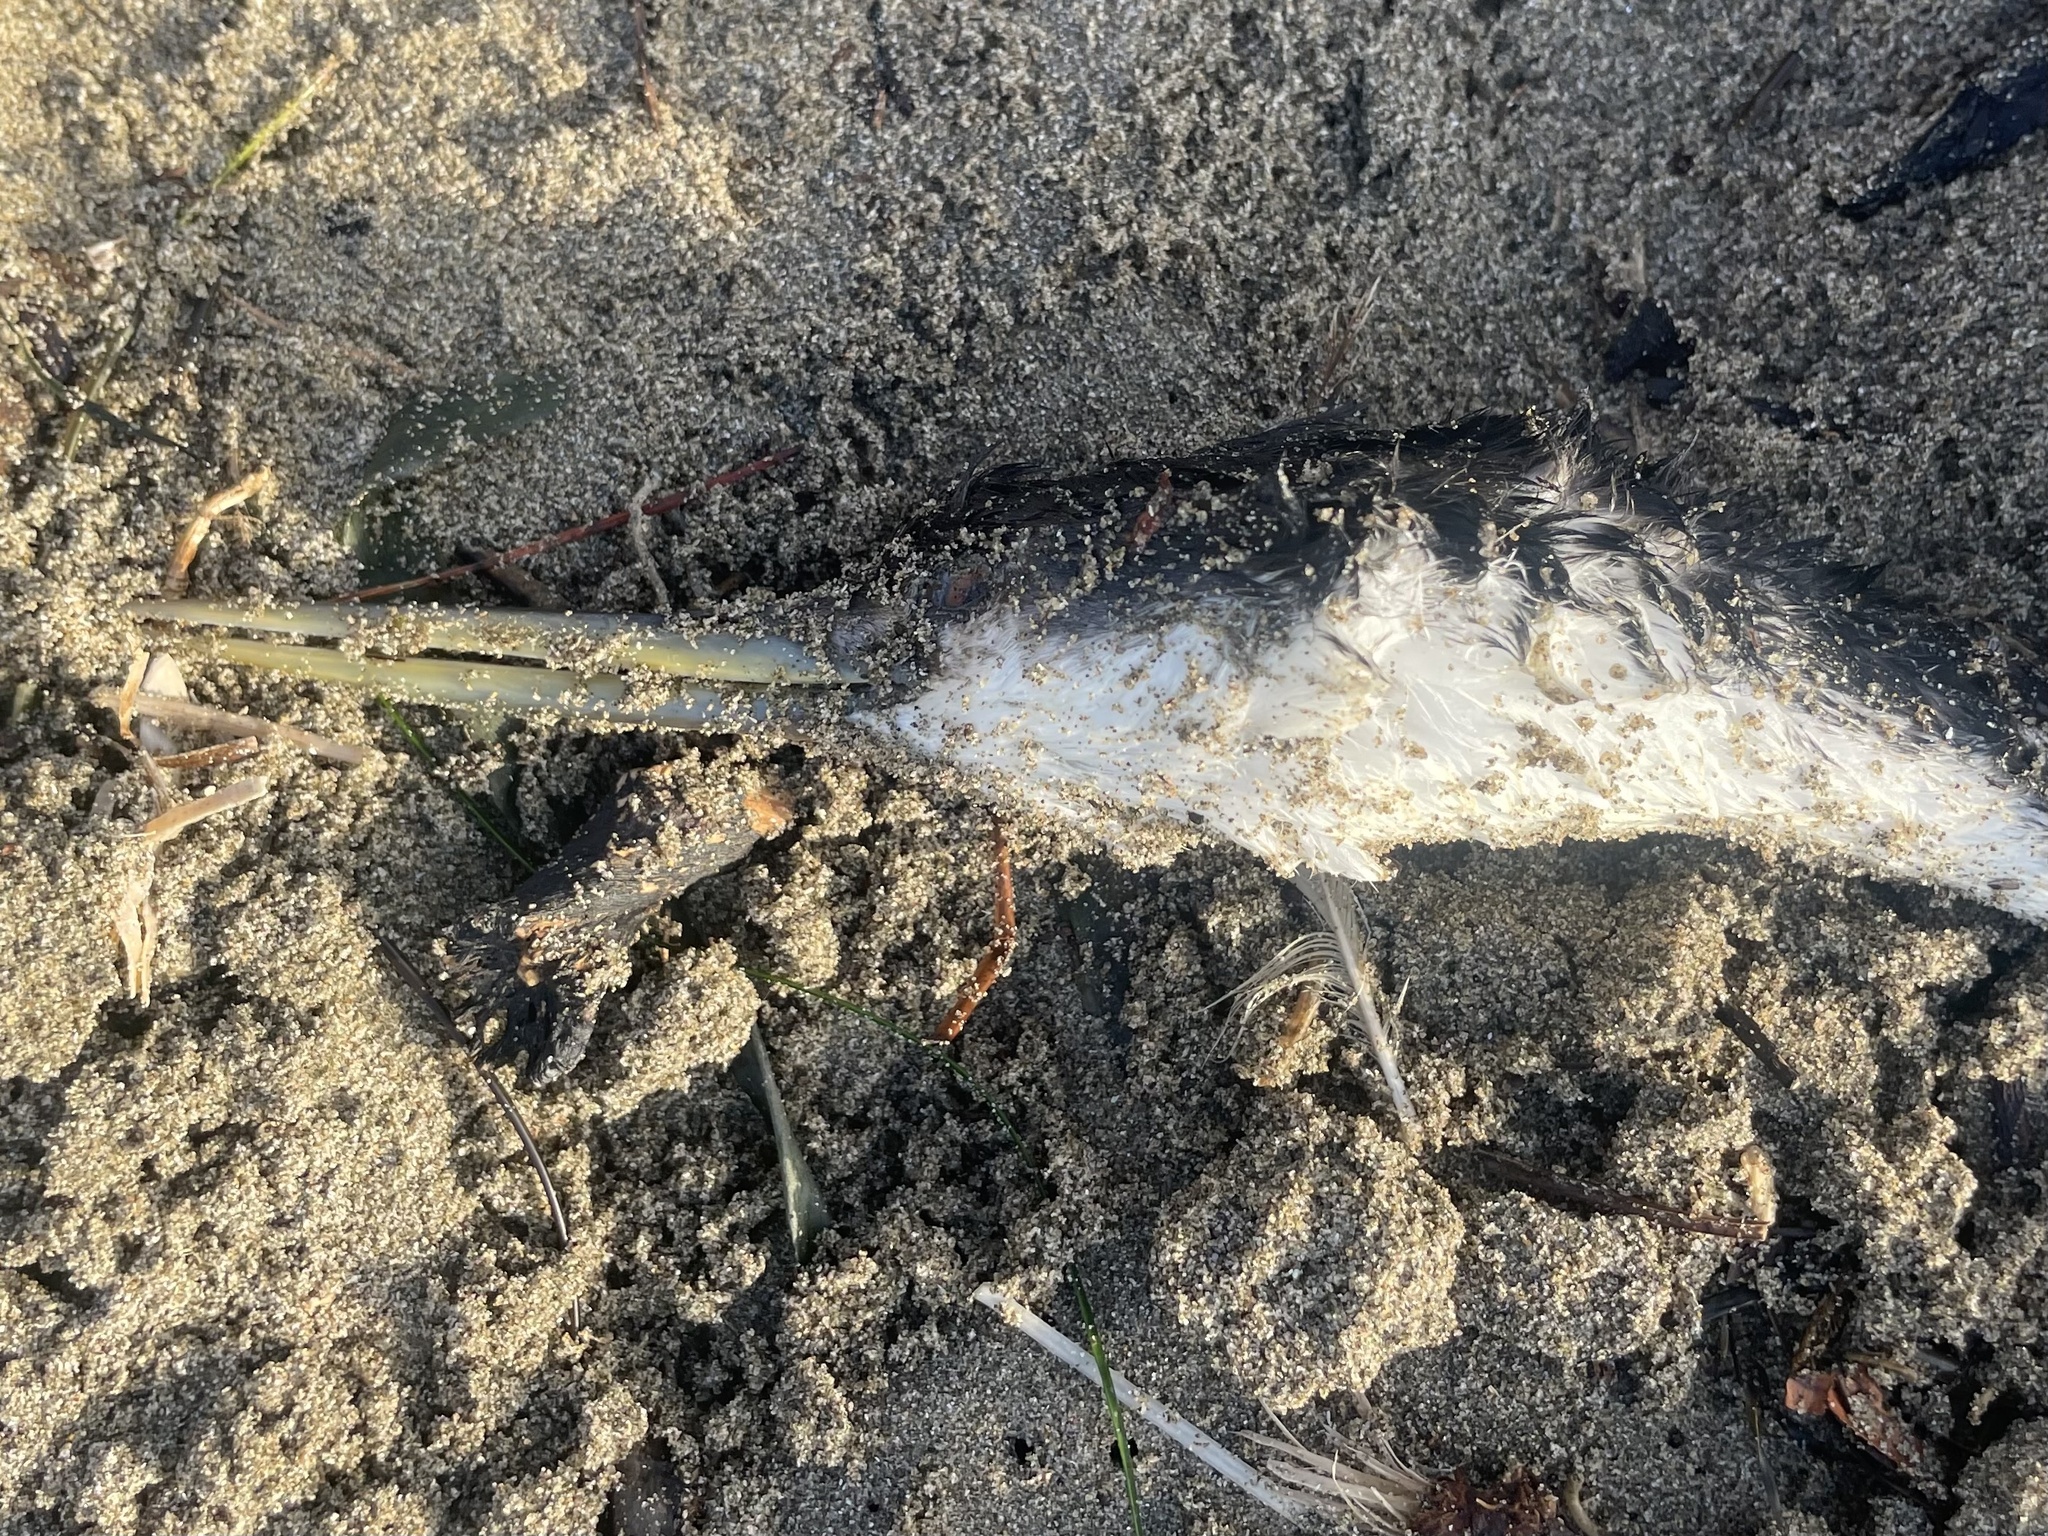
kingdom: Animalia
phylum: Chordata
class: Aves
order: Podicipediformes
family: Podicipedidae
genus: Aechmophorus
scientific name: Aechmophorus occidentalis
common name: Western grebe
